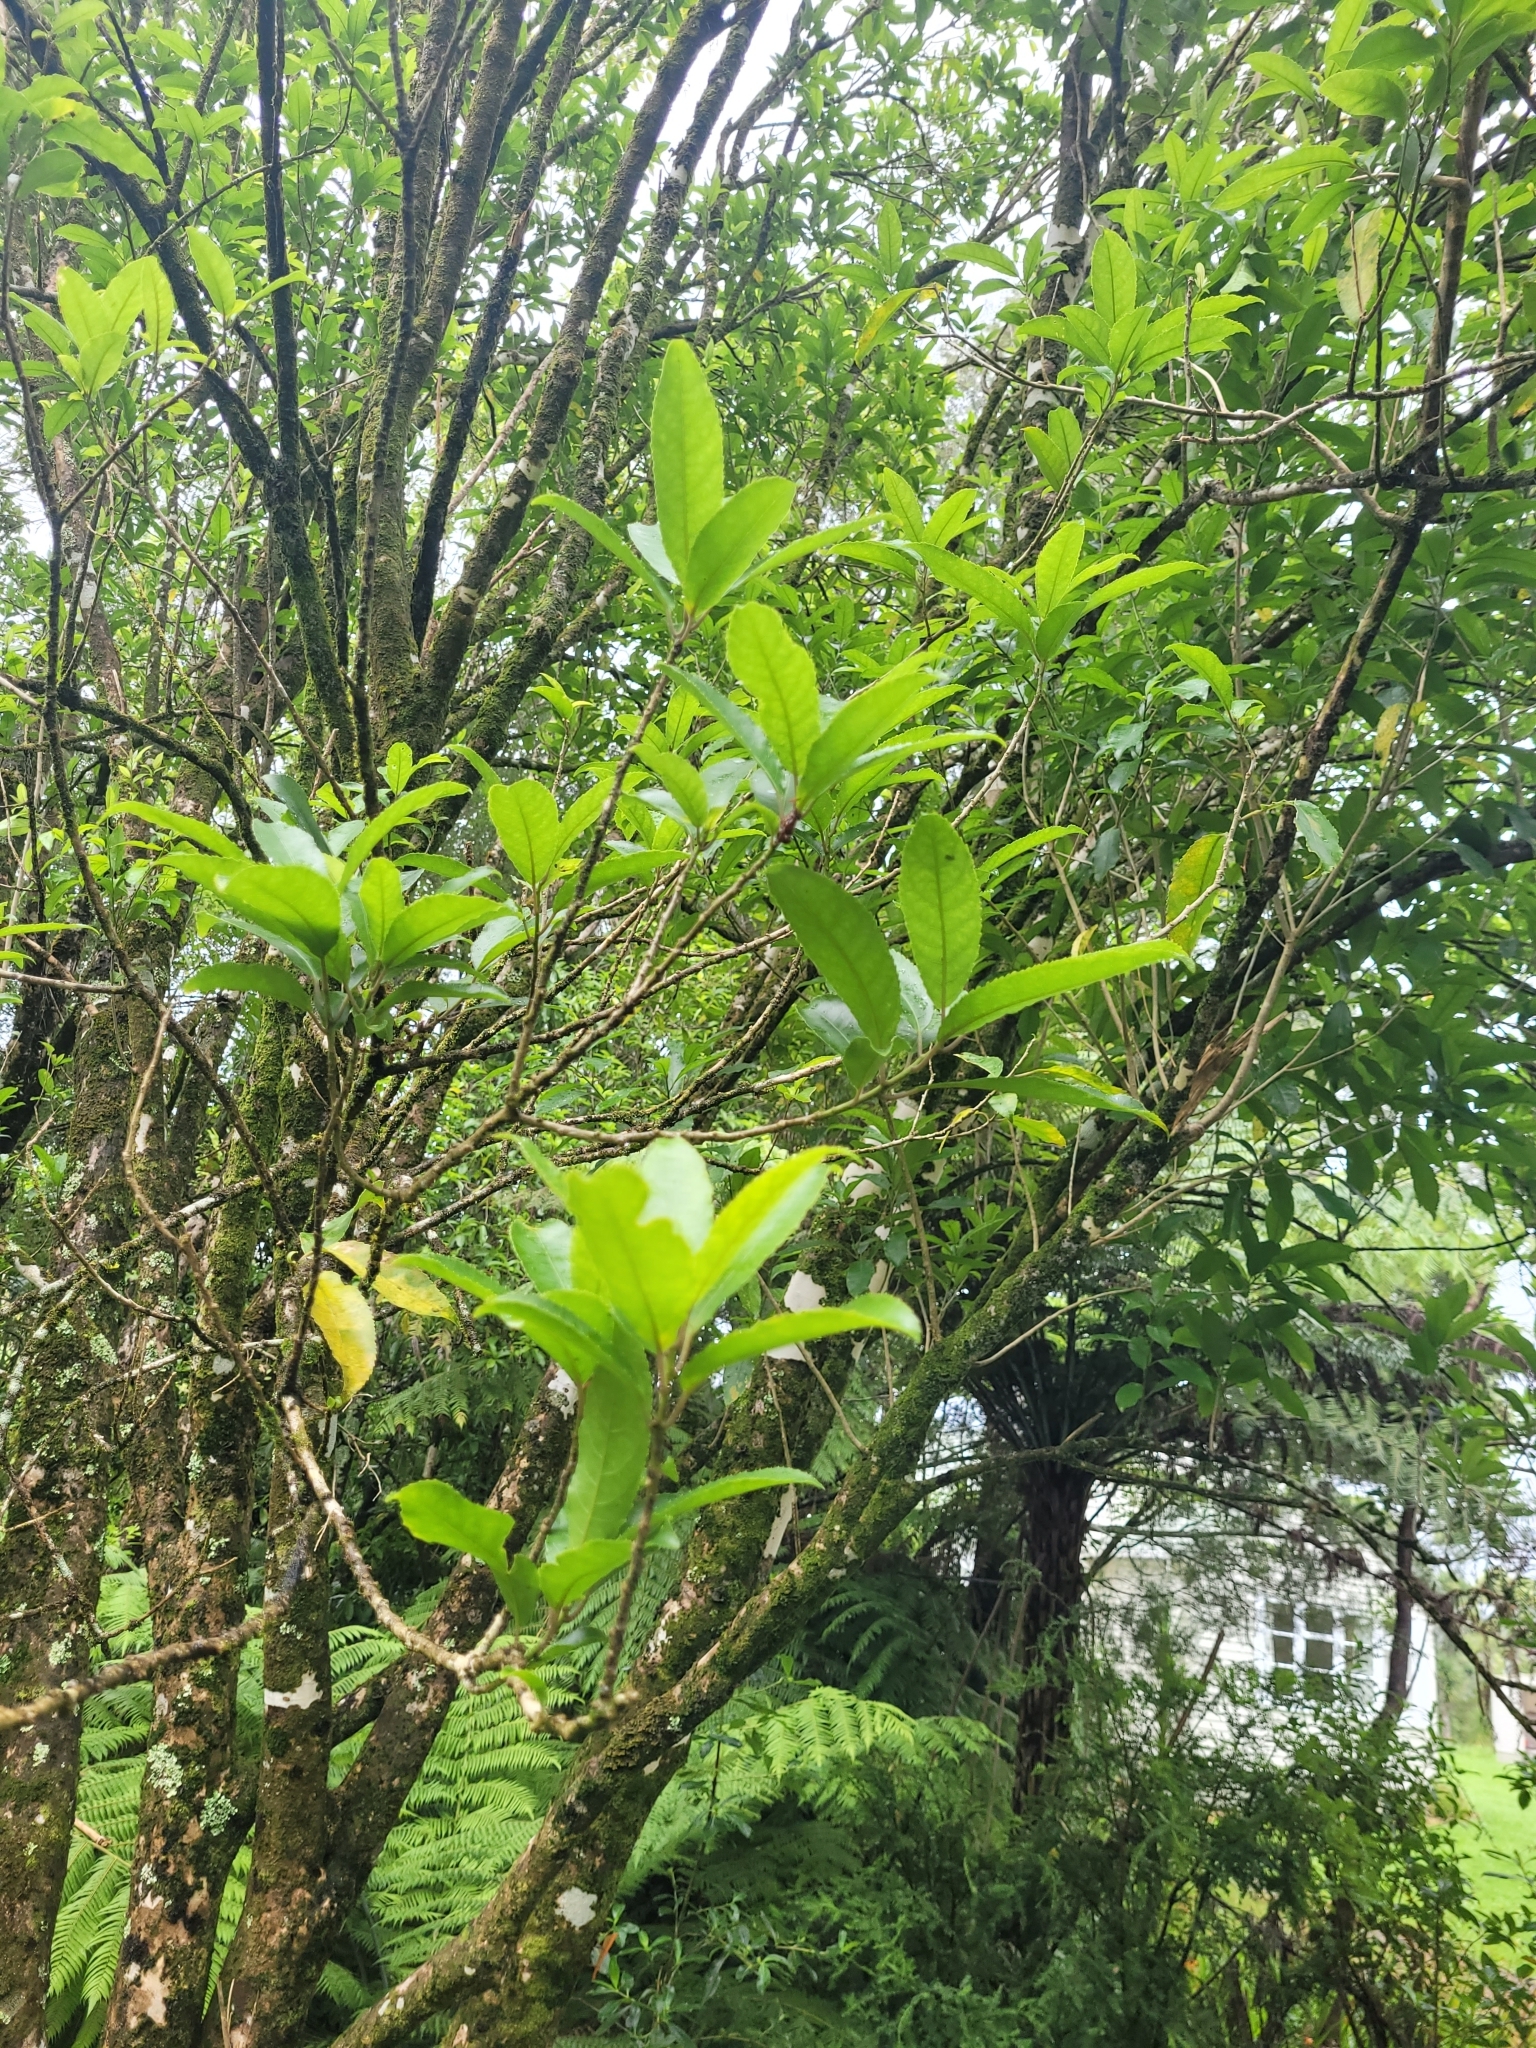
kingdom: Plantae
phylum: Tracheophyta
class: Magnoliopsida
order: Malpighiales
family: Violaceae
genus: Melicytus
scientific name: Melicytus ramiflorus
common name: Mahoe
